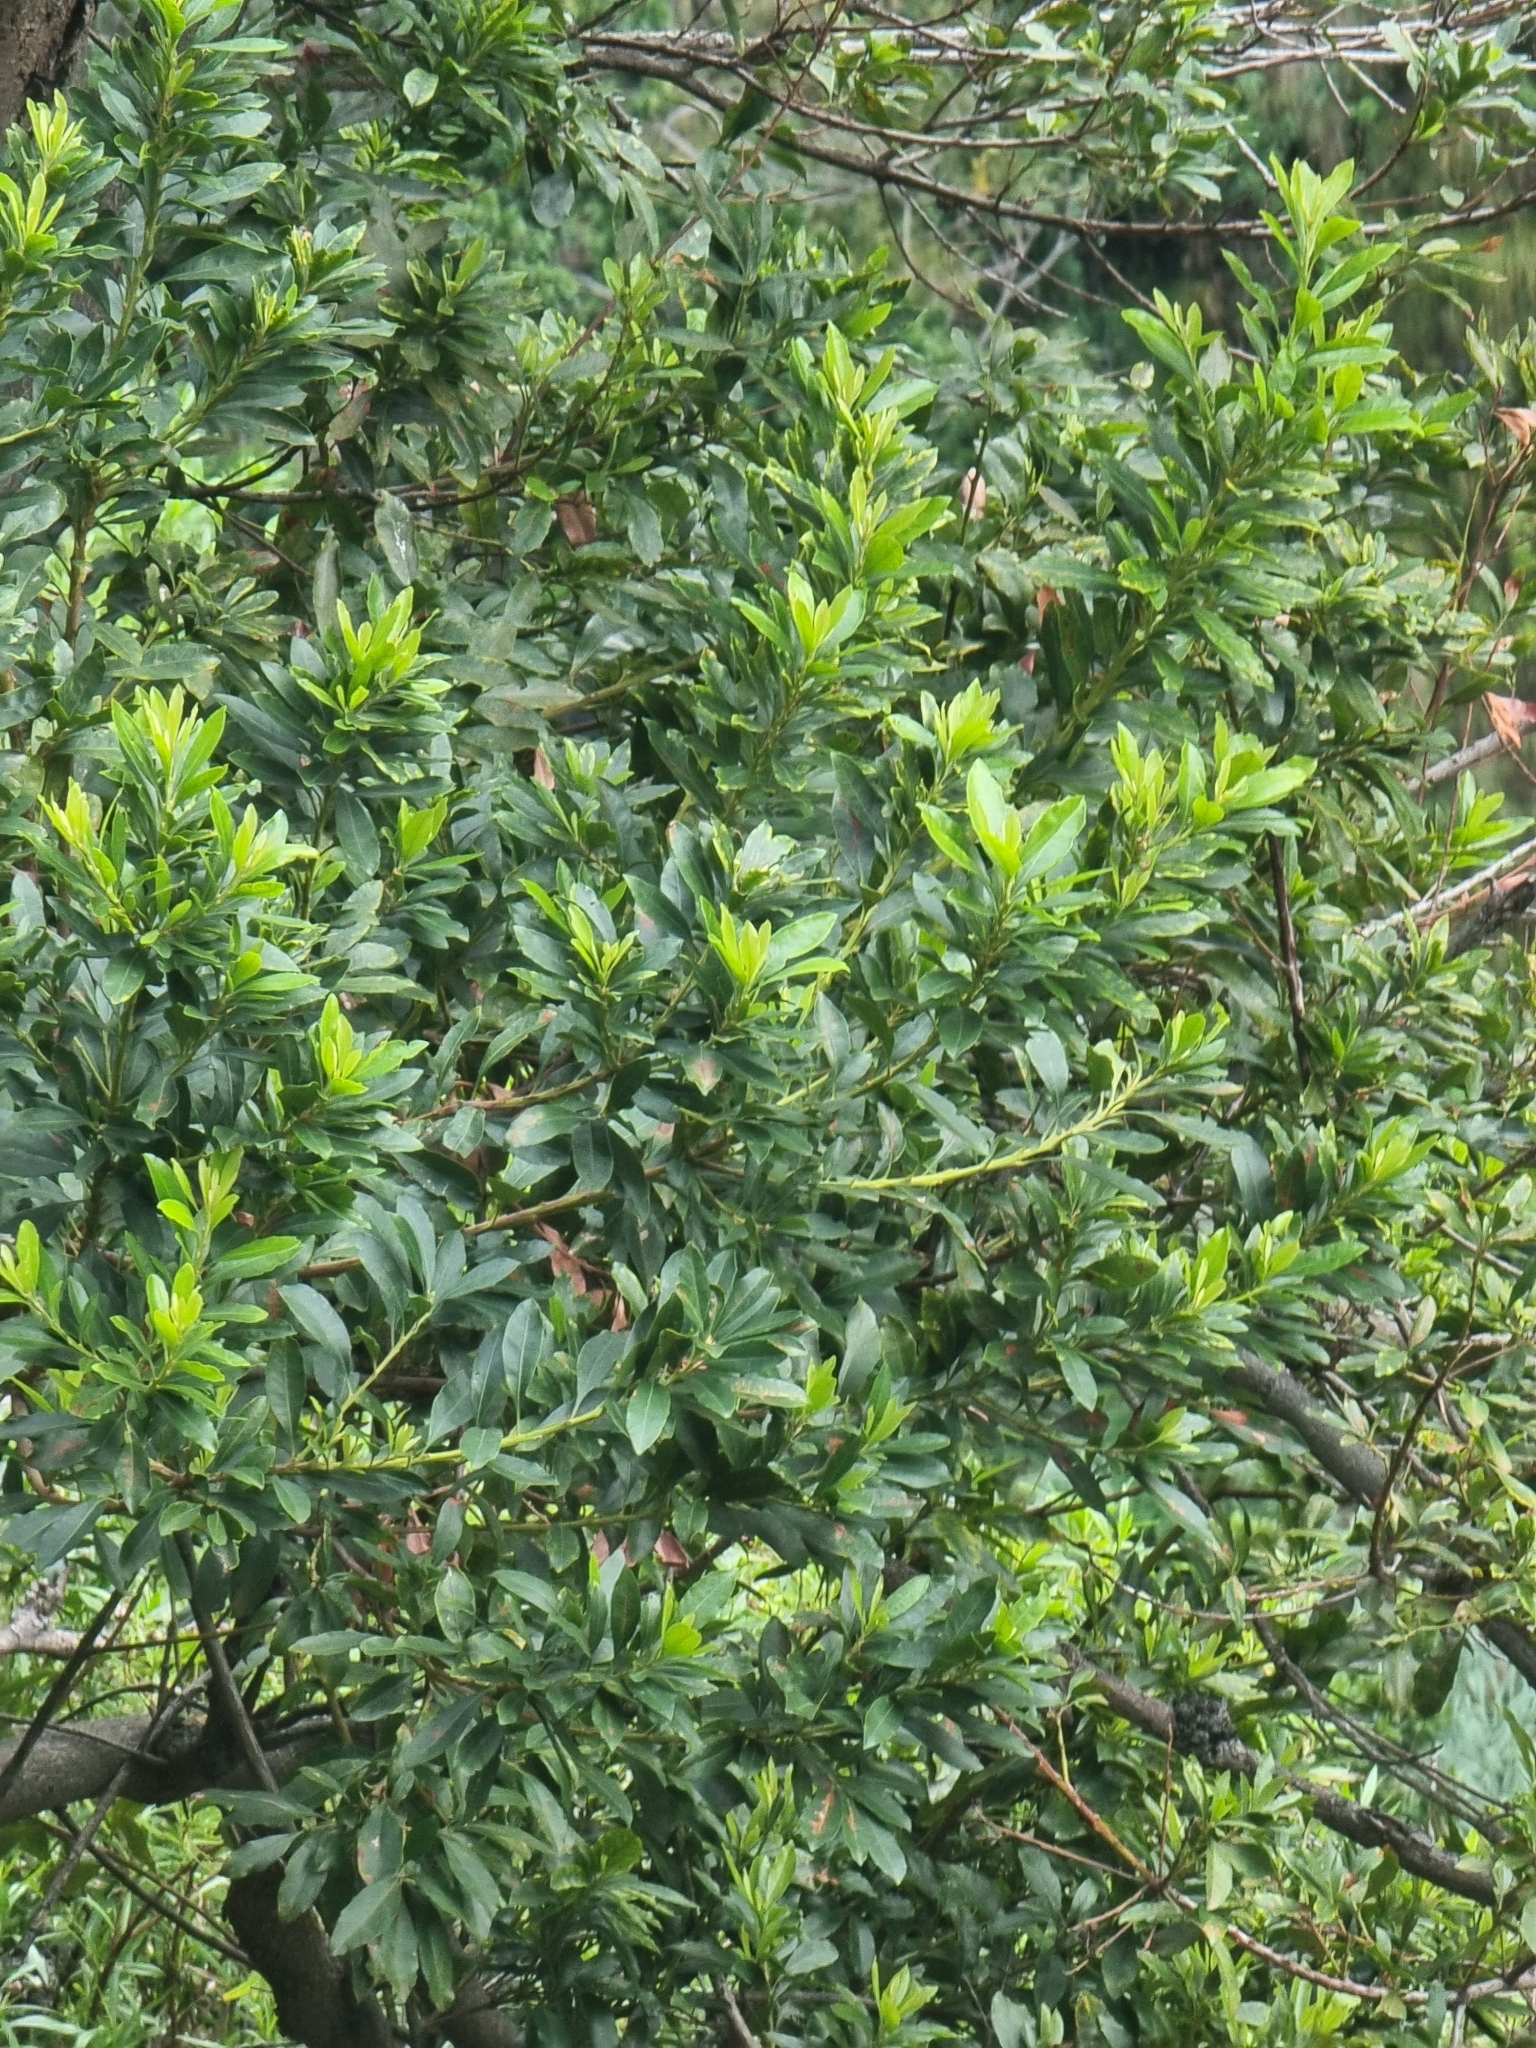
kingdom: Plantae
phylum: Tracheophyta
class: Magnoliopsida
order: Fagales
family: Myricaceae
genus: Morella
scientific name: Morella faya
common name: Firetree
